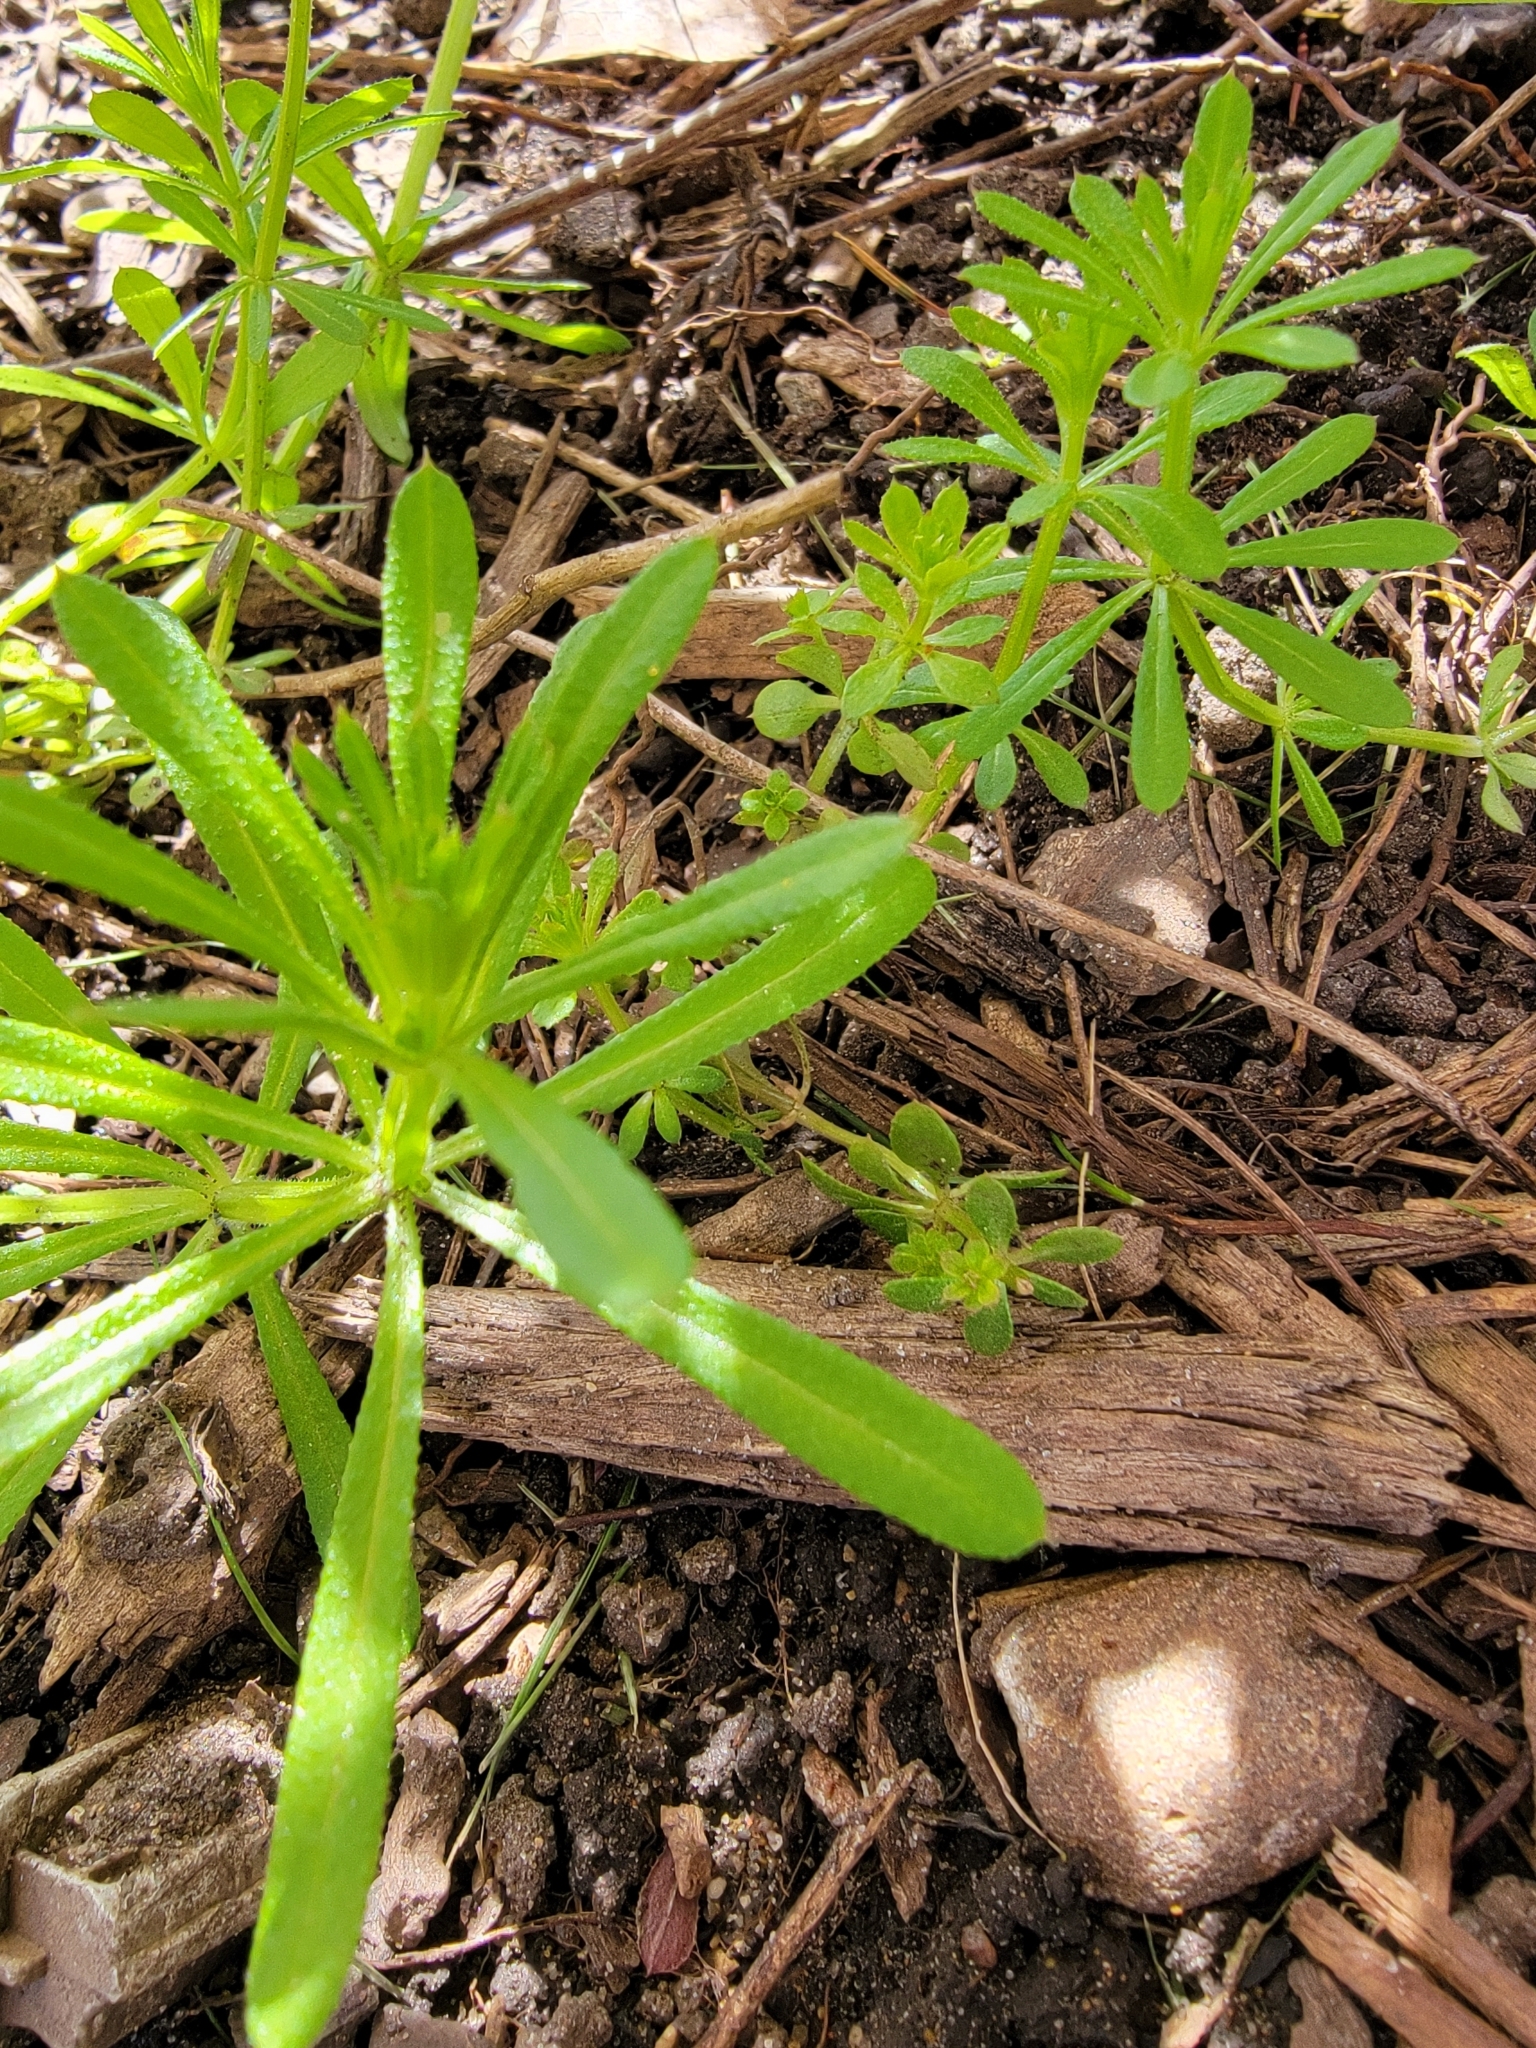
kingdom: Plantae
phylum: Tracheophyta
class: Magnoliopsida
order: Gentianales
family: Rubiaceae
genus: Galium
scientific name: Galium aparine
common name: Cleavers
